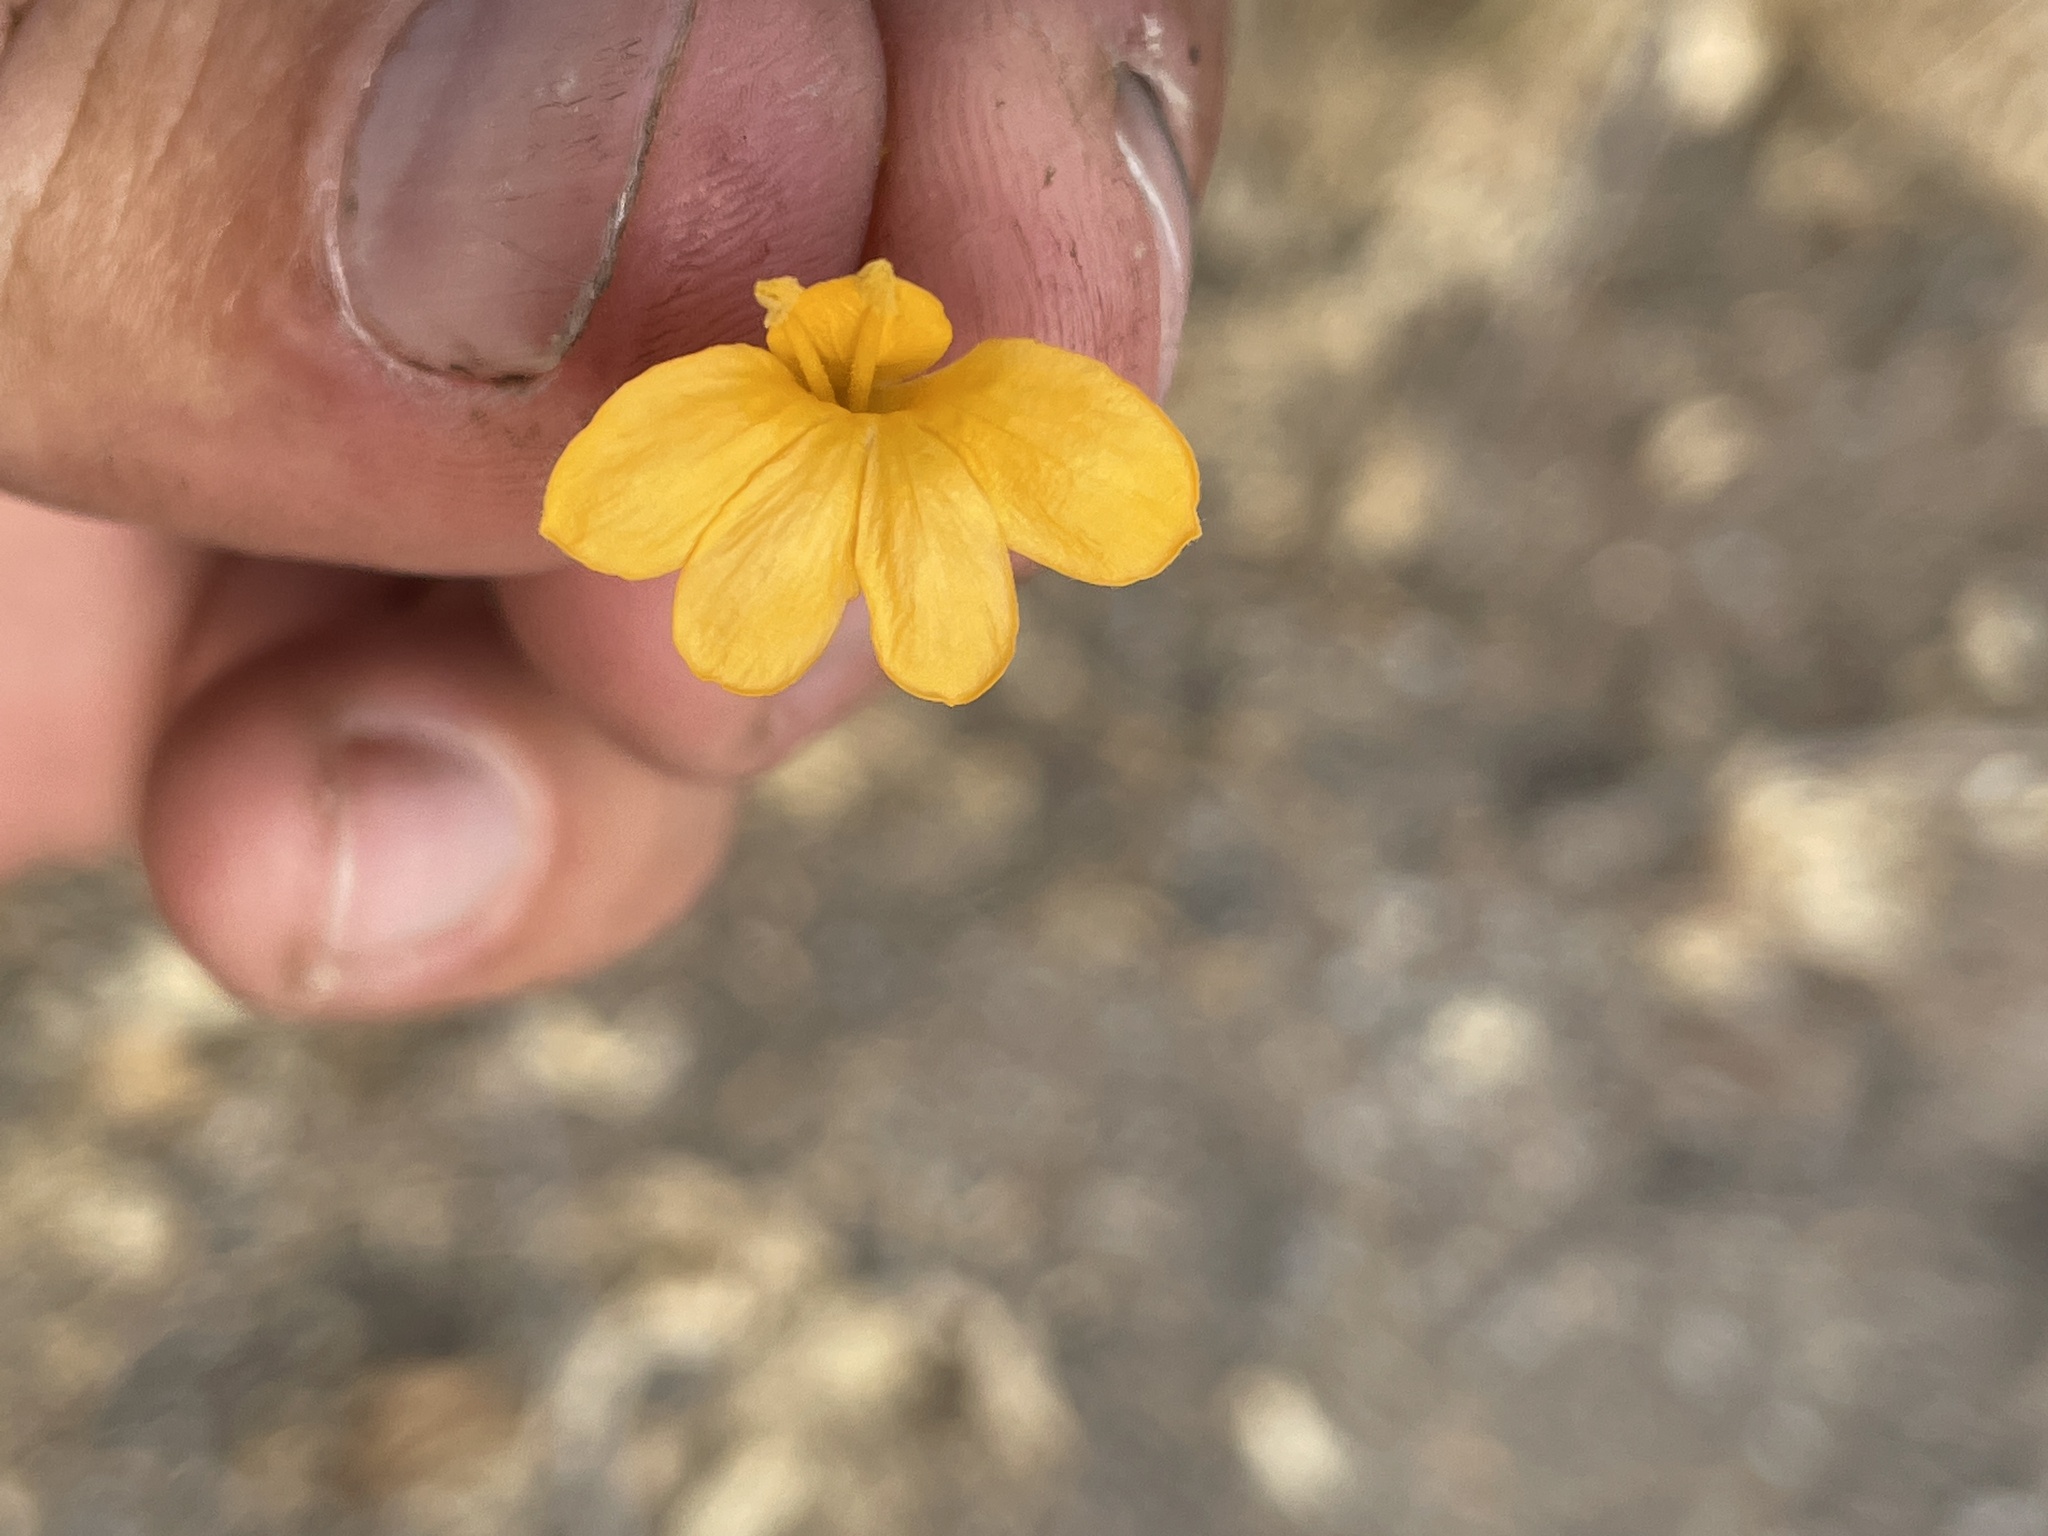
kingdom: Plantae
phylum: Tracheophyta
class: Magnoliopsida
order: Lamiales
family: Acanthaceae
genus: Barleria
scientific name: Barleria senensis
